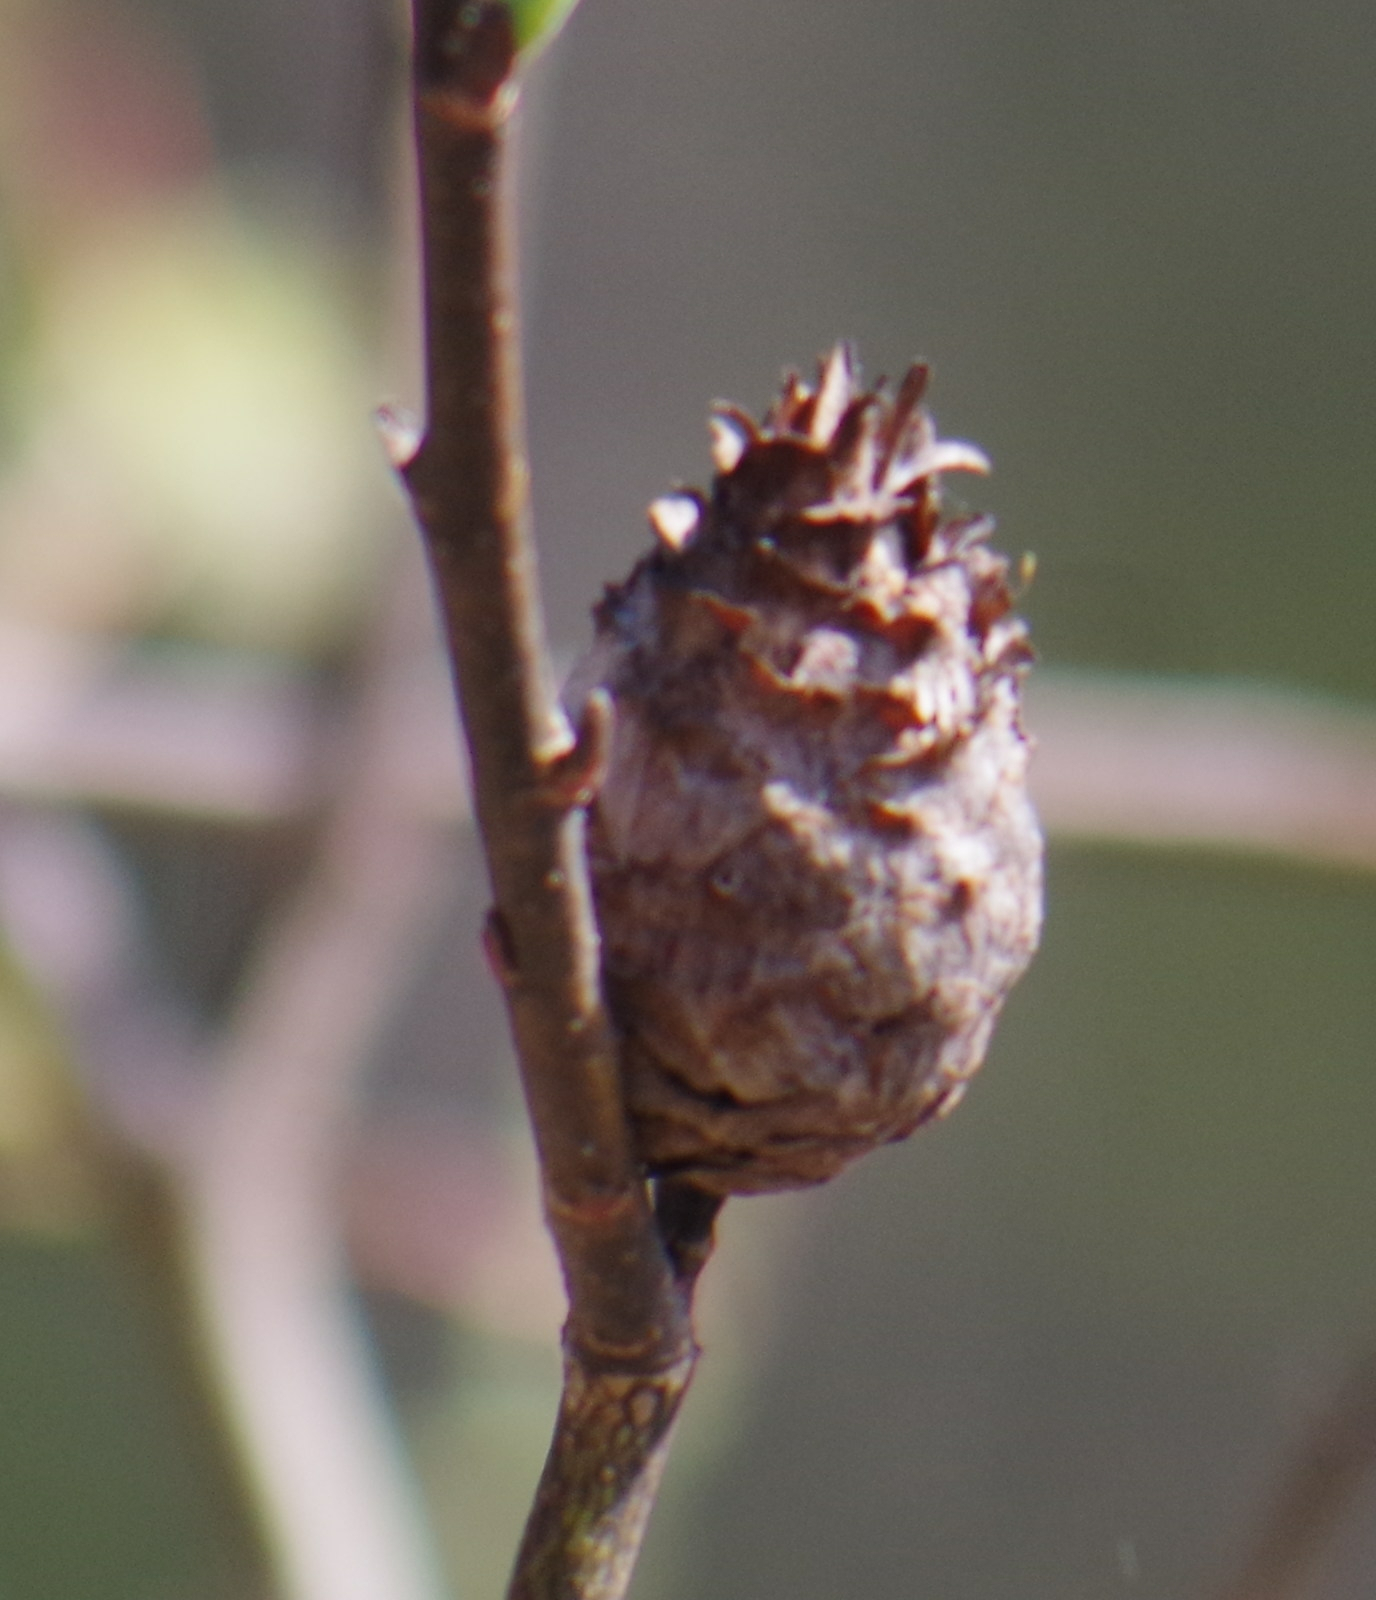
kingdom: Animalia
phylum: Arthropoda
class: Insecta
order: Diptera
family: Cecidomyiidae
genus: Rabdophaga
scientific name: Rabdophaga strobiloides
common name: Willow pinecone gall midge
